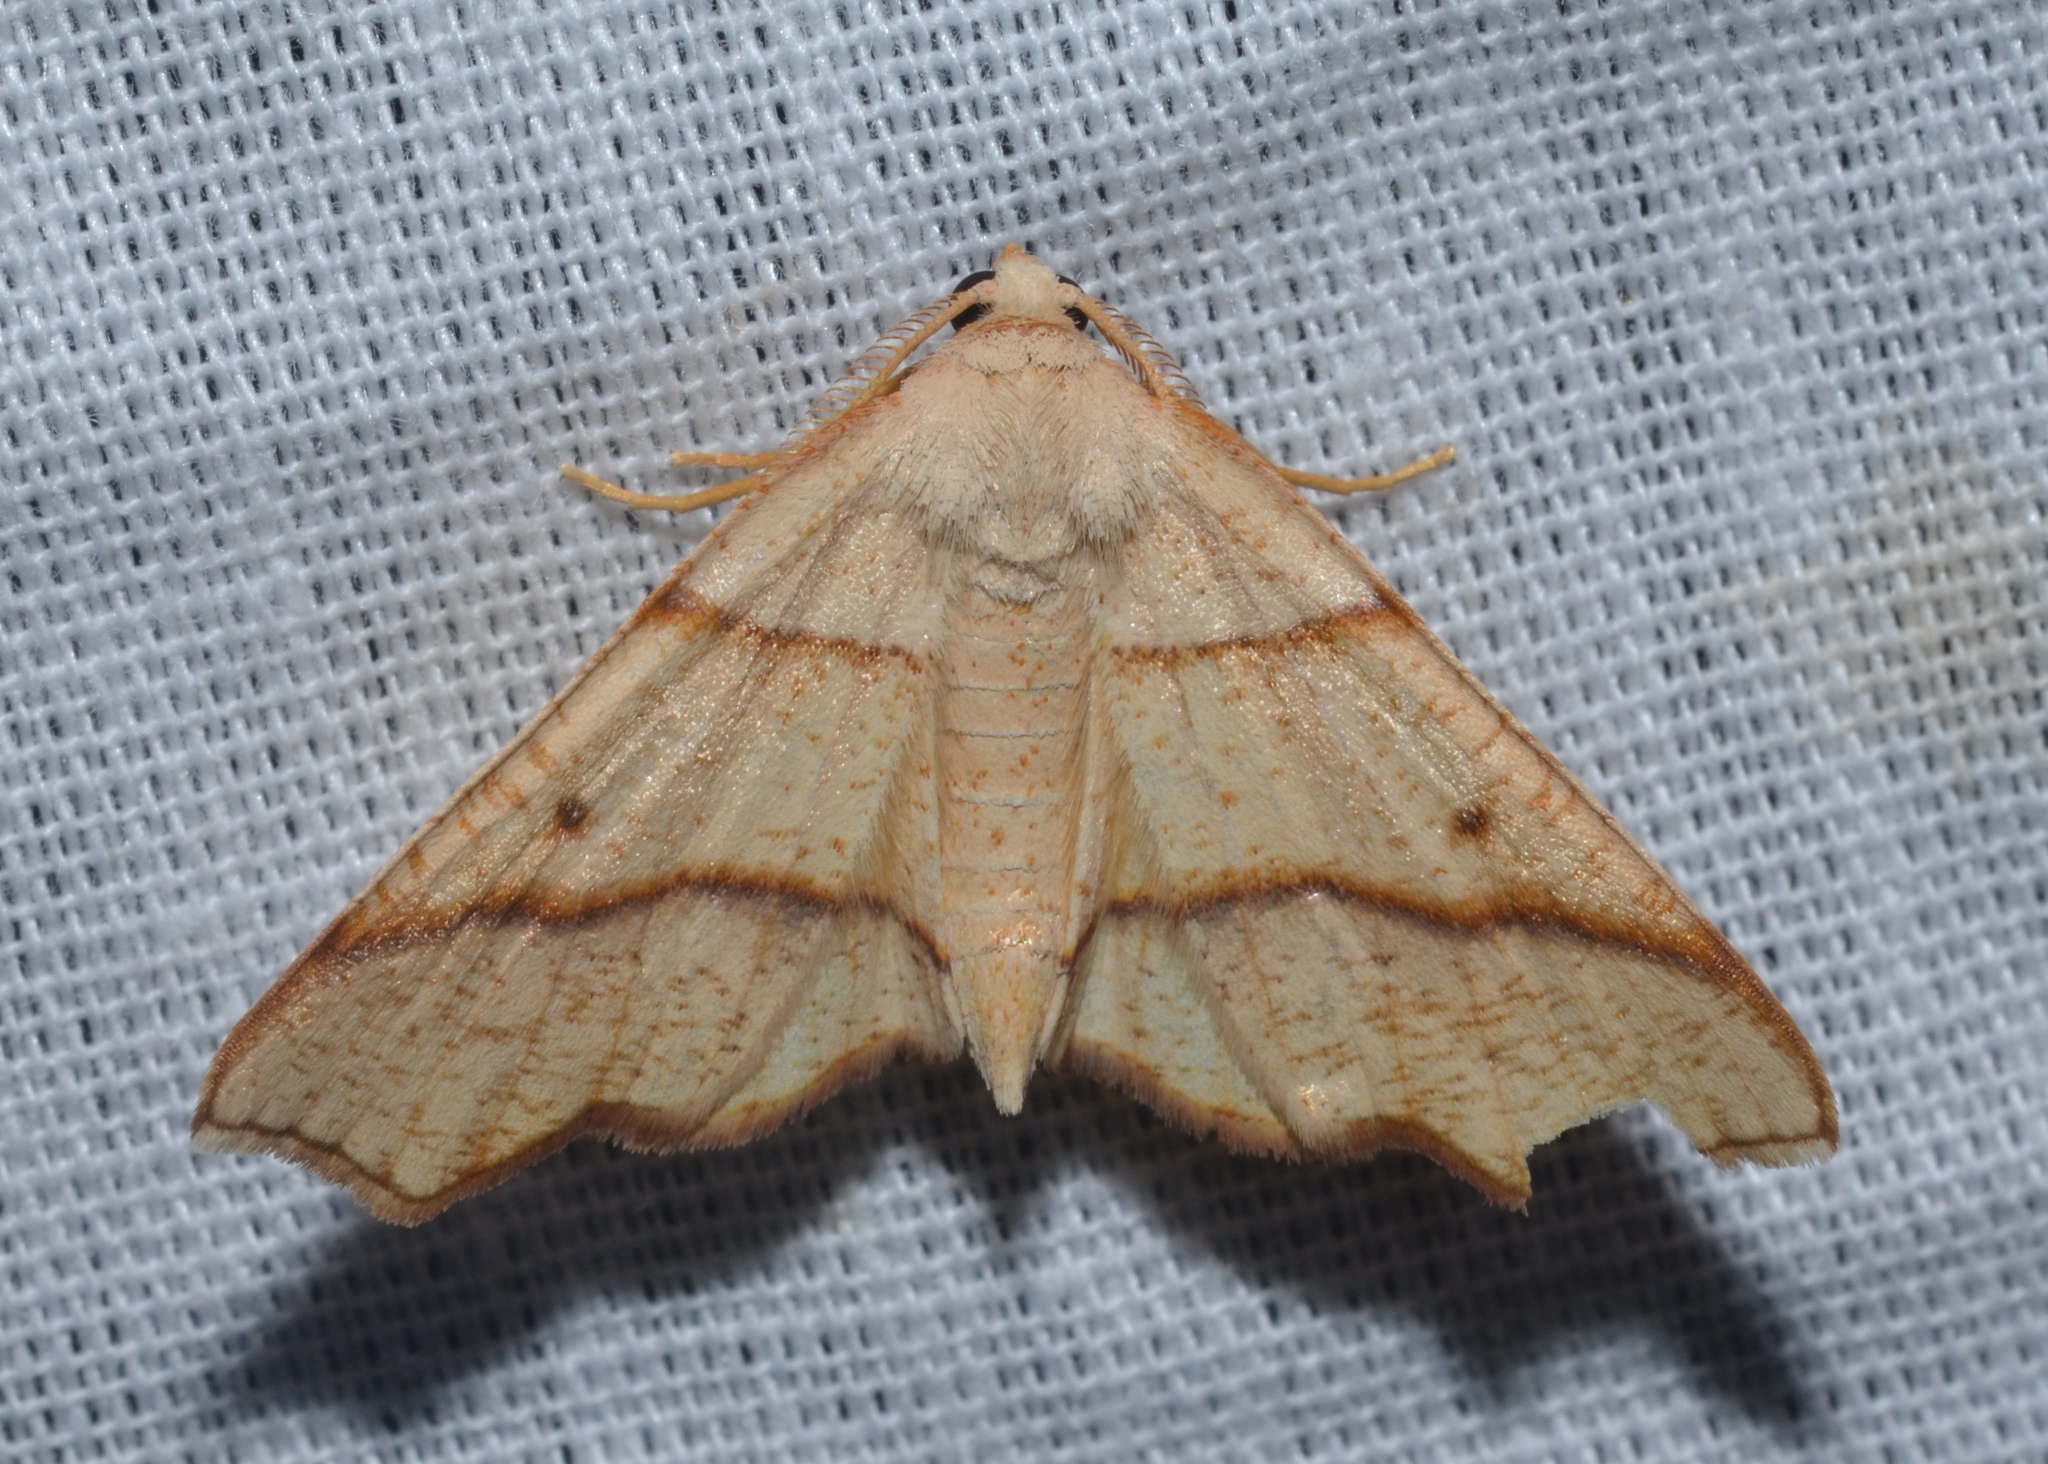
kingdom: Animalia
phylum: Arthropoda
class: Insecta
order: Lepidoptera
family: Geometridae
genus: Plagodis
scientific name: Plagodis alcoolaria
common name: Hollow-spotted plagodis
